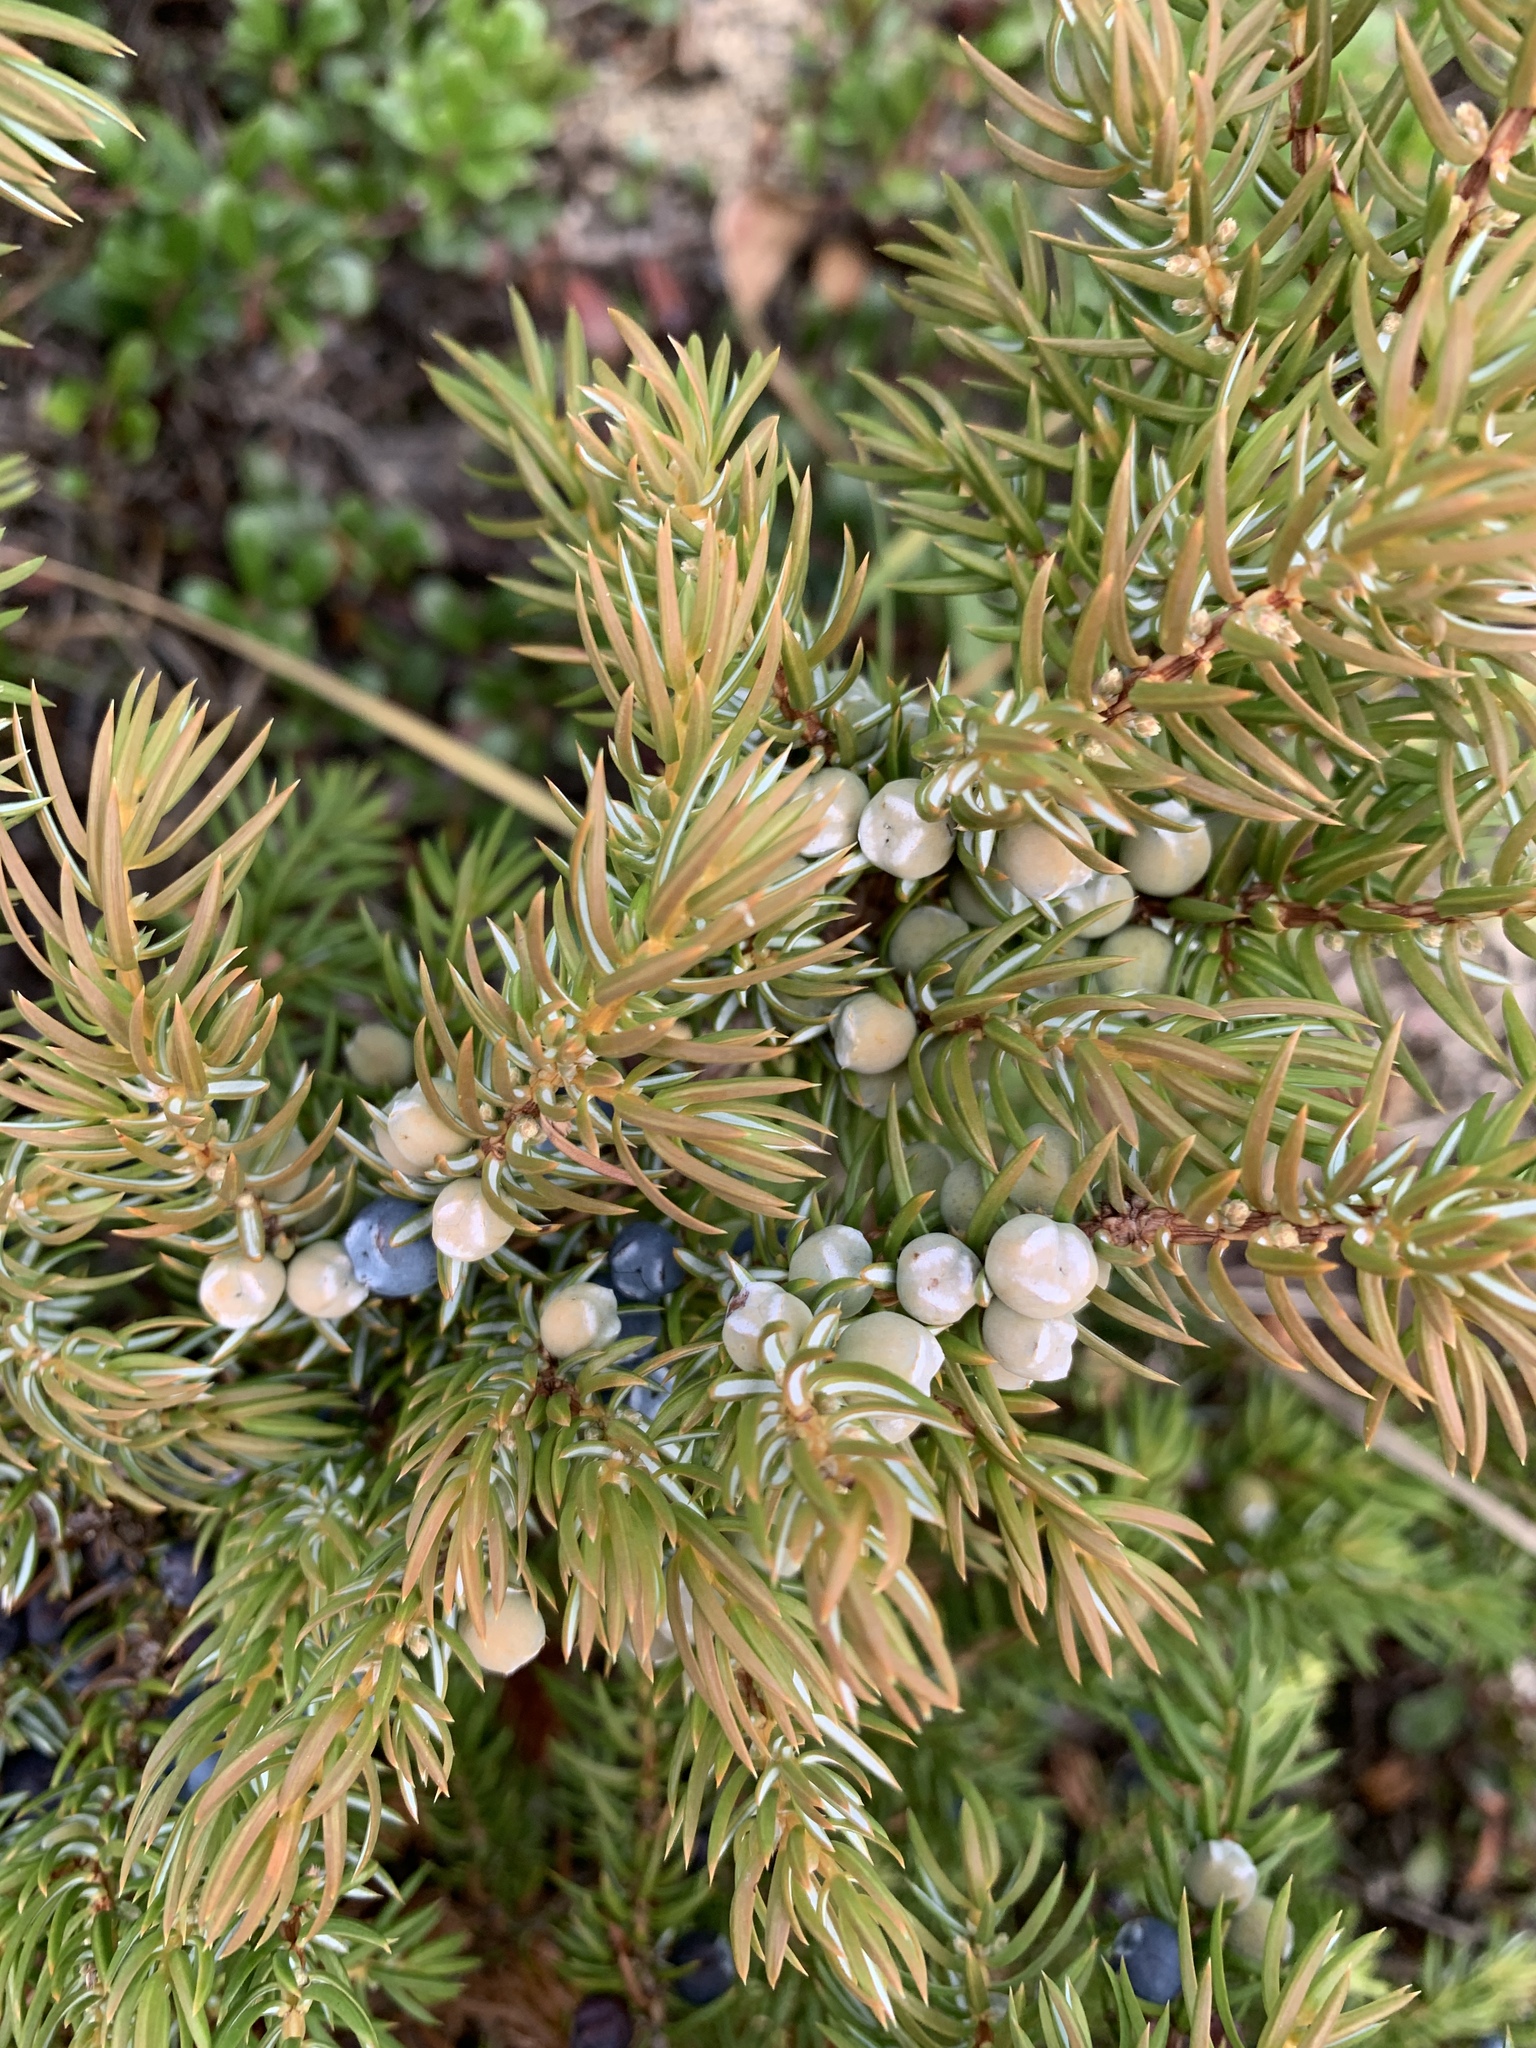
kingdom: Plantae
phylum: Tracheophyta
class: Pinopsida
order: Pinales
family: Cupressaceae
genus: Juniperus
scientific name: Juniperus communis
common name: Common juniper
